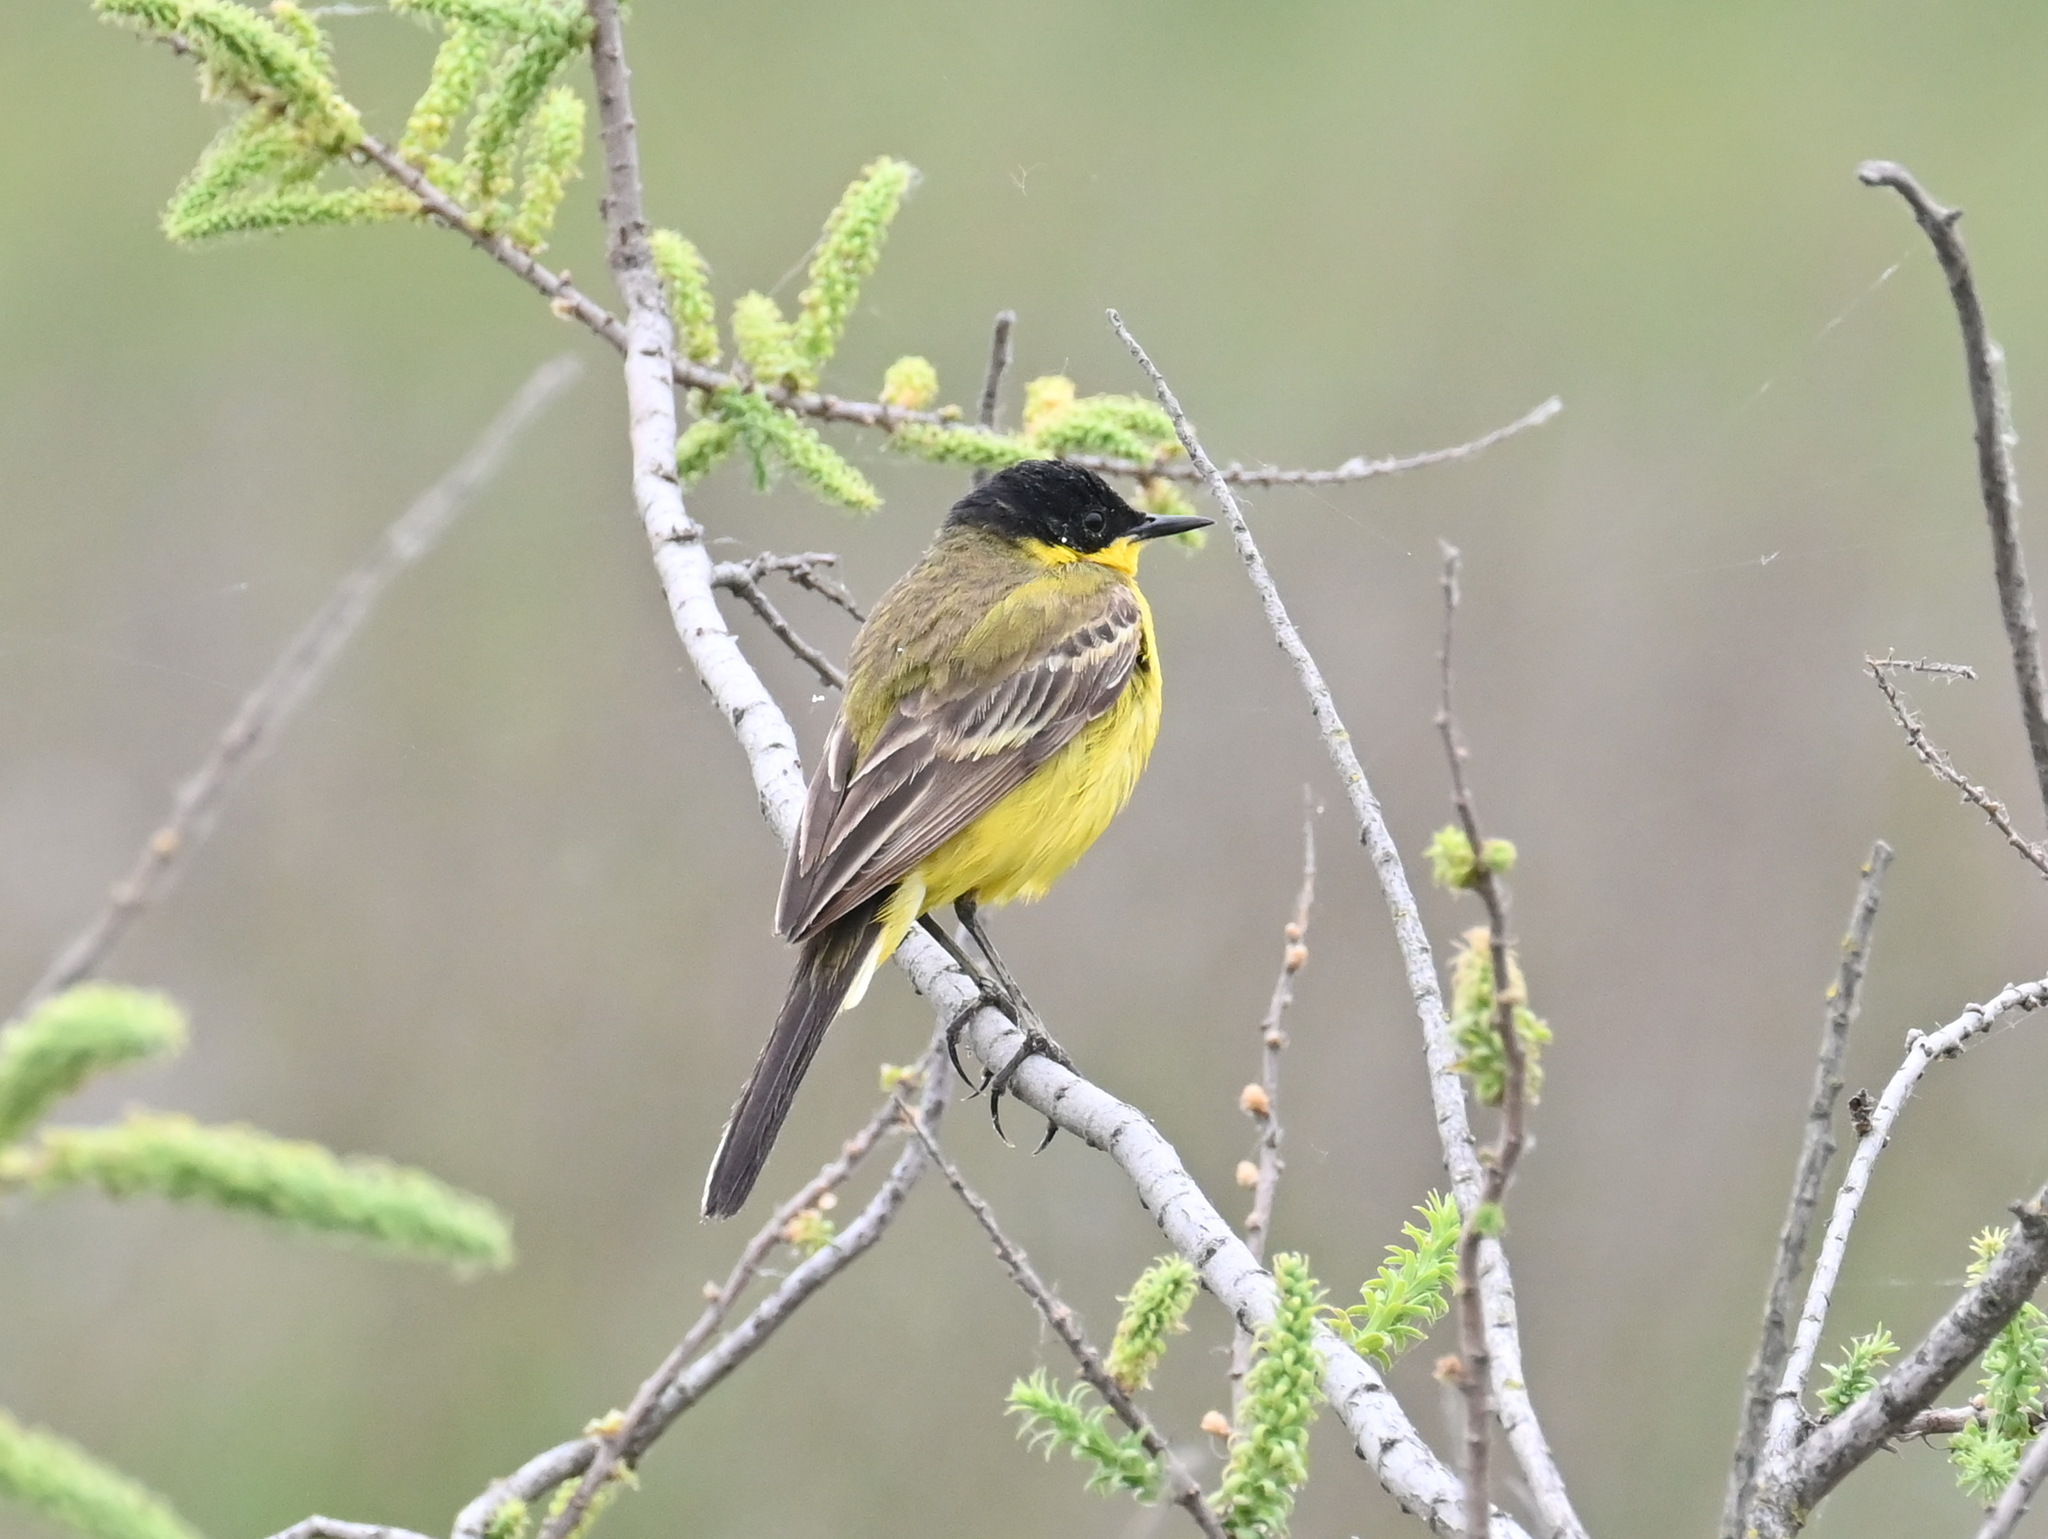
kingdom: Animalia
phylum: Chordata
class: Aves
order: Passeriformes
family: Motacillidae
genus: Motacilla
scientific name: Motacilla flava
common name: Western yellow wagtail
